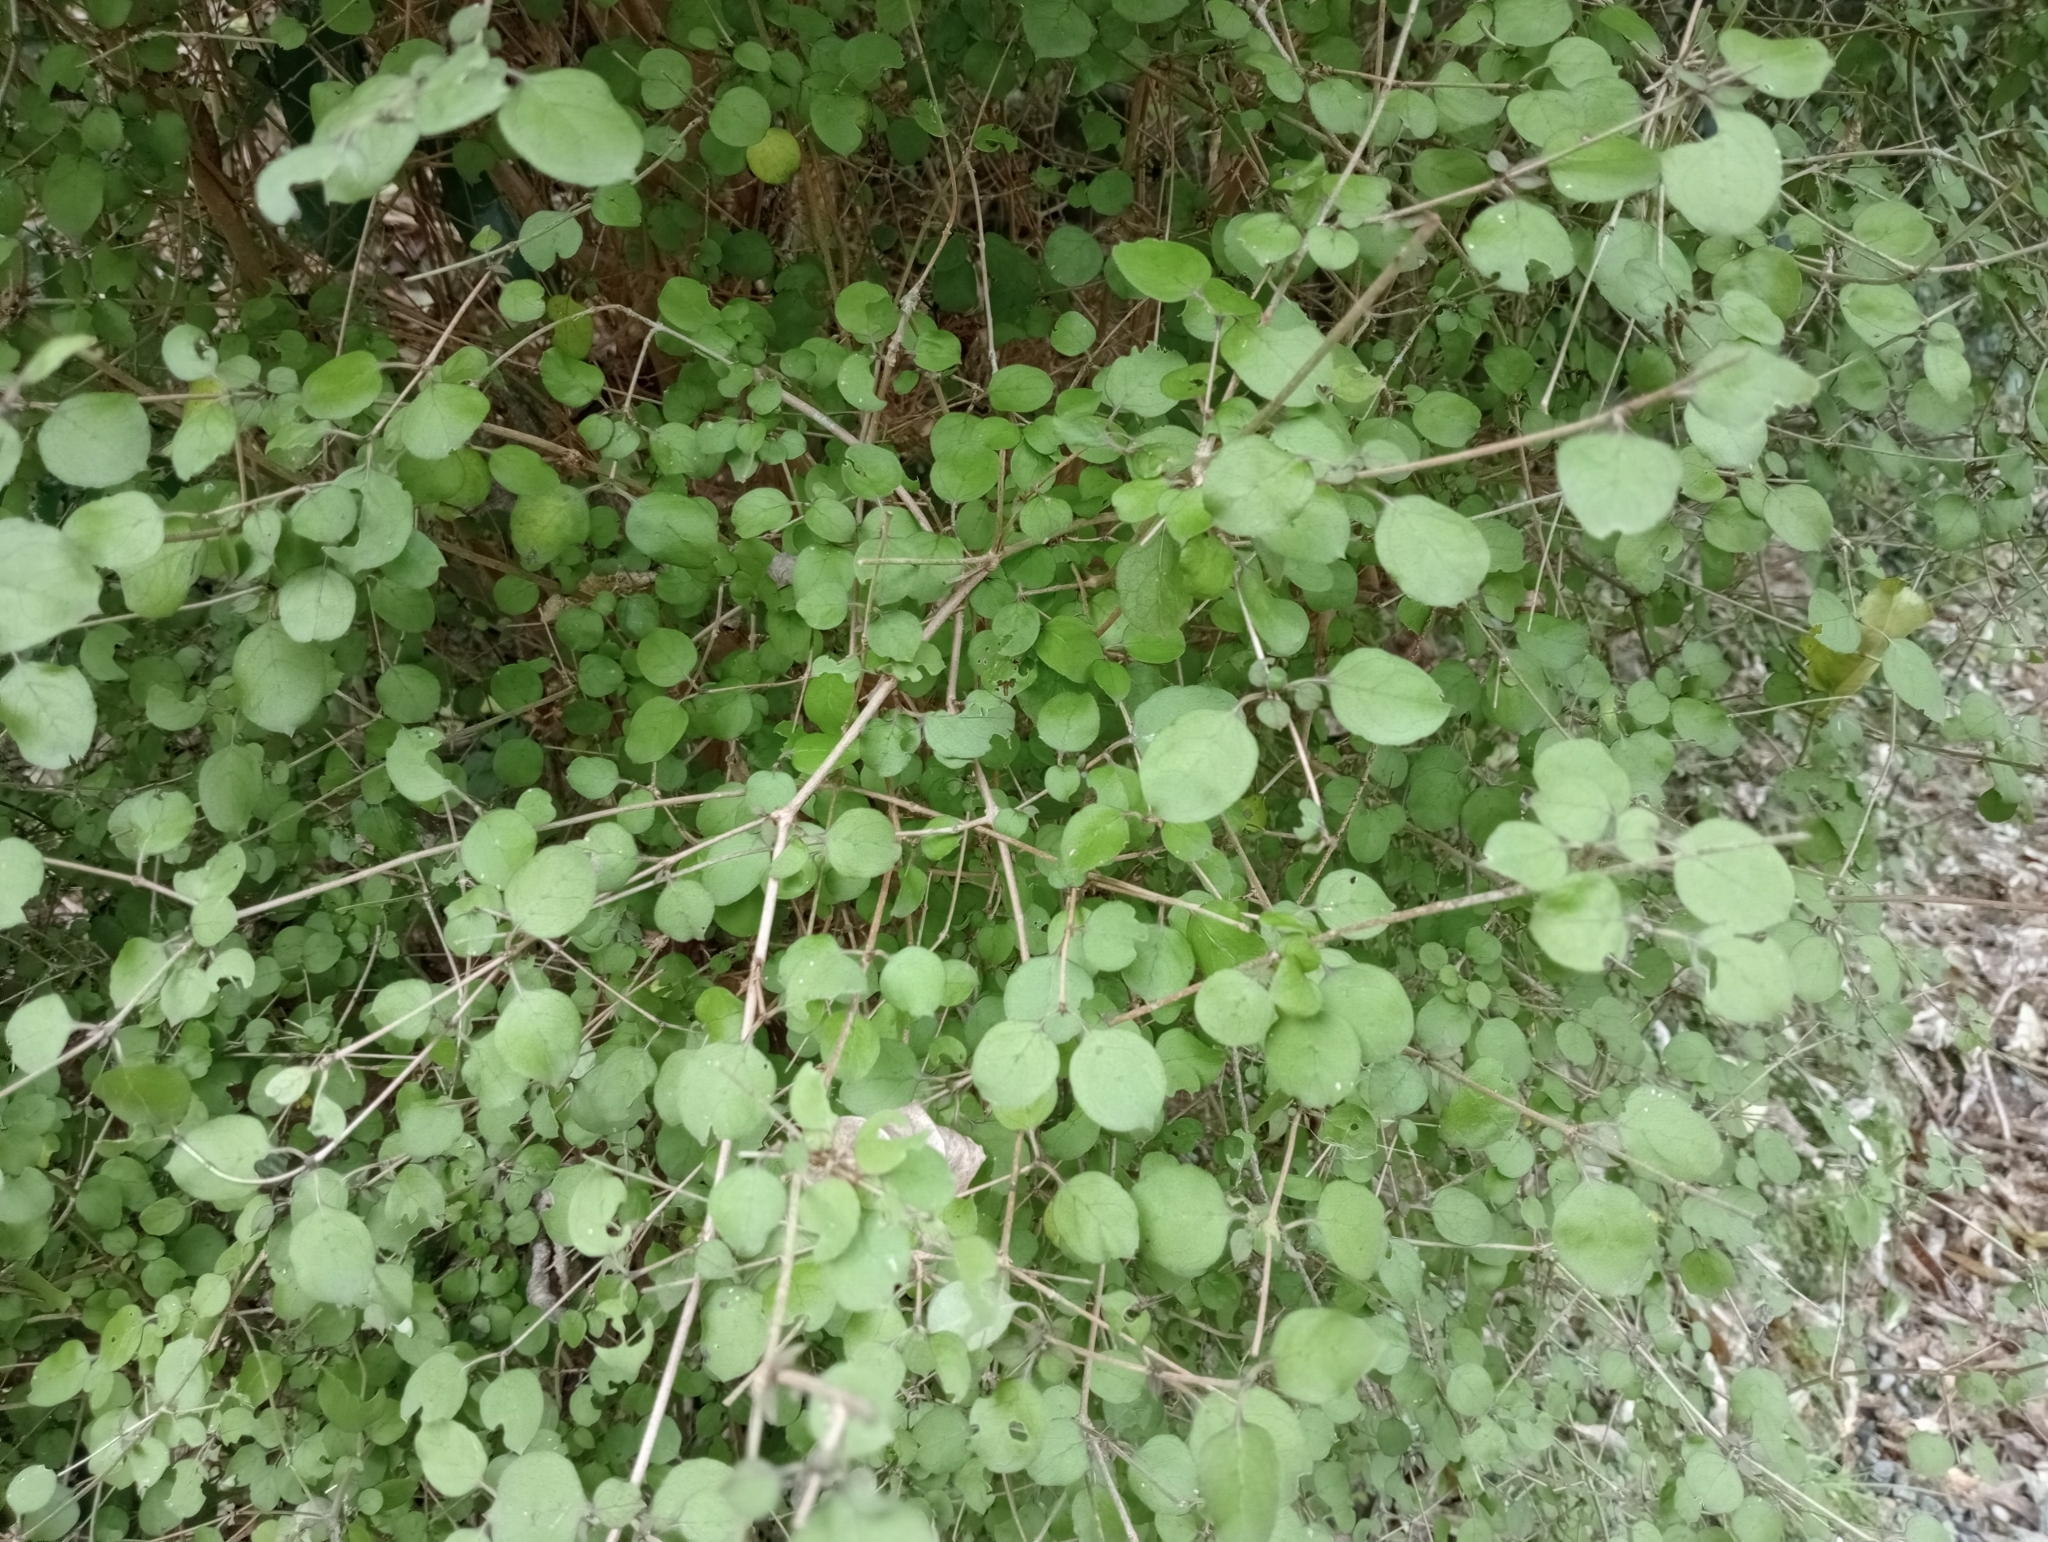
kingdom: Plantae
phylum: Tracheophyta
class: Magnoliopsida
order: Gentianales
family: Rubiaceae
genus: Coprosma
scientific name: Coprosma rotundifolia
